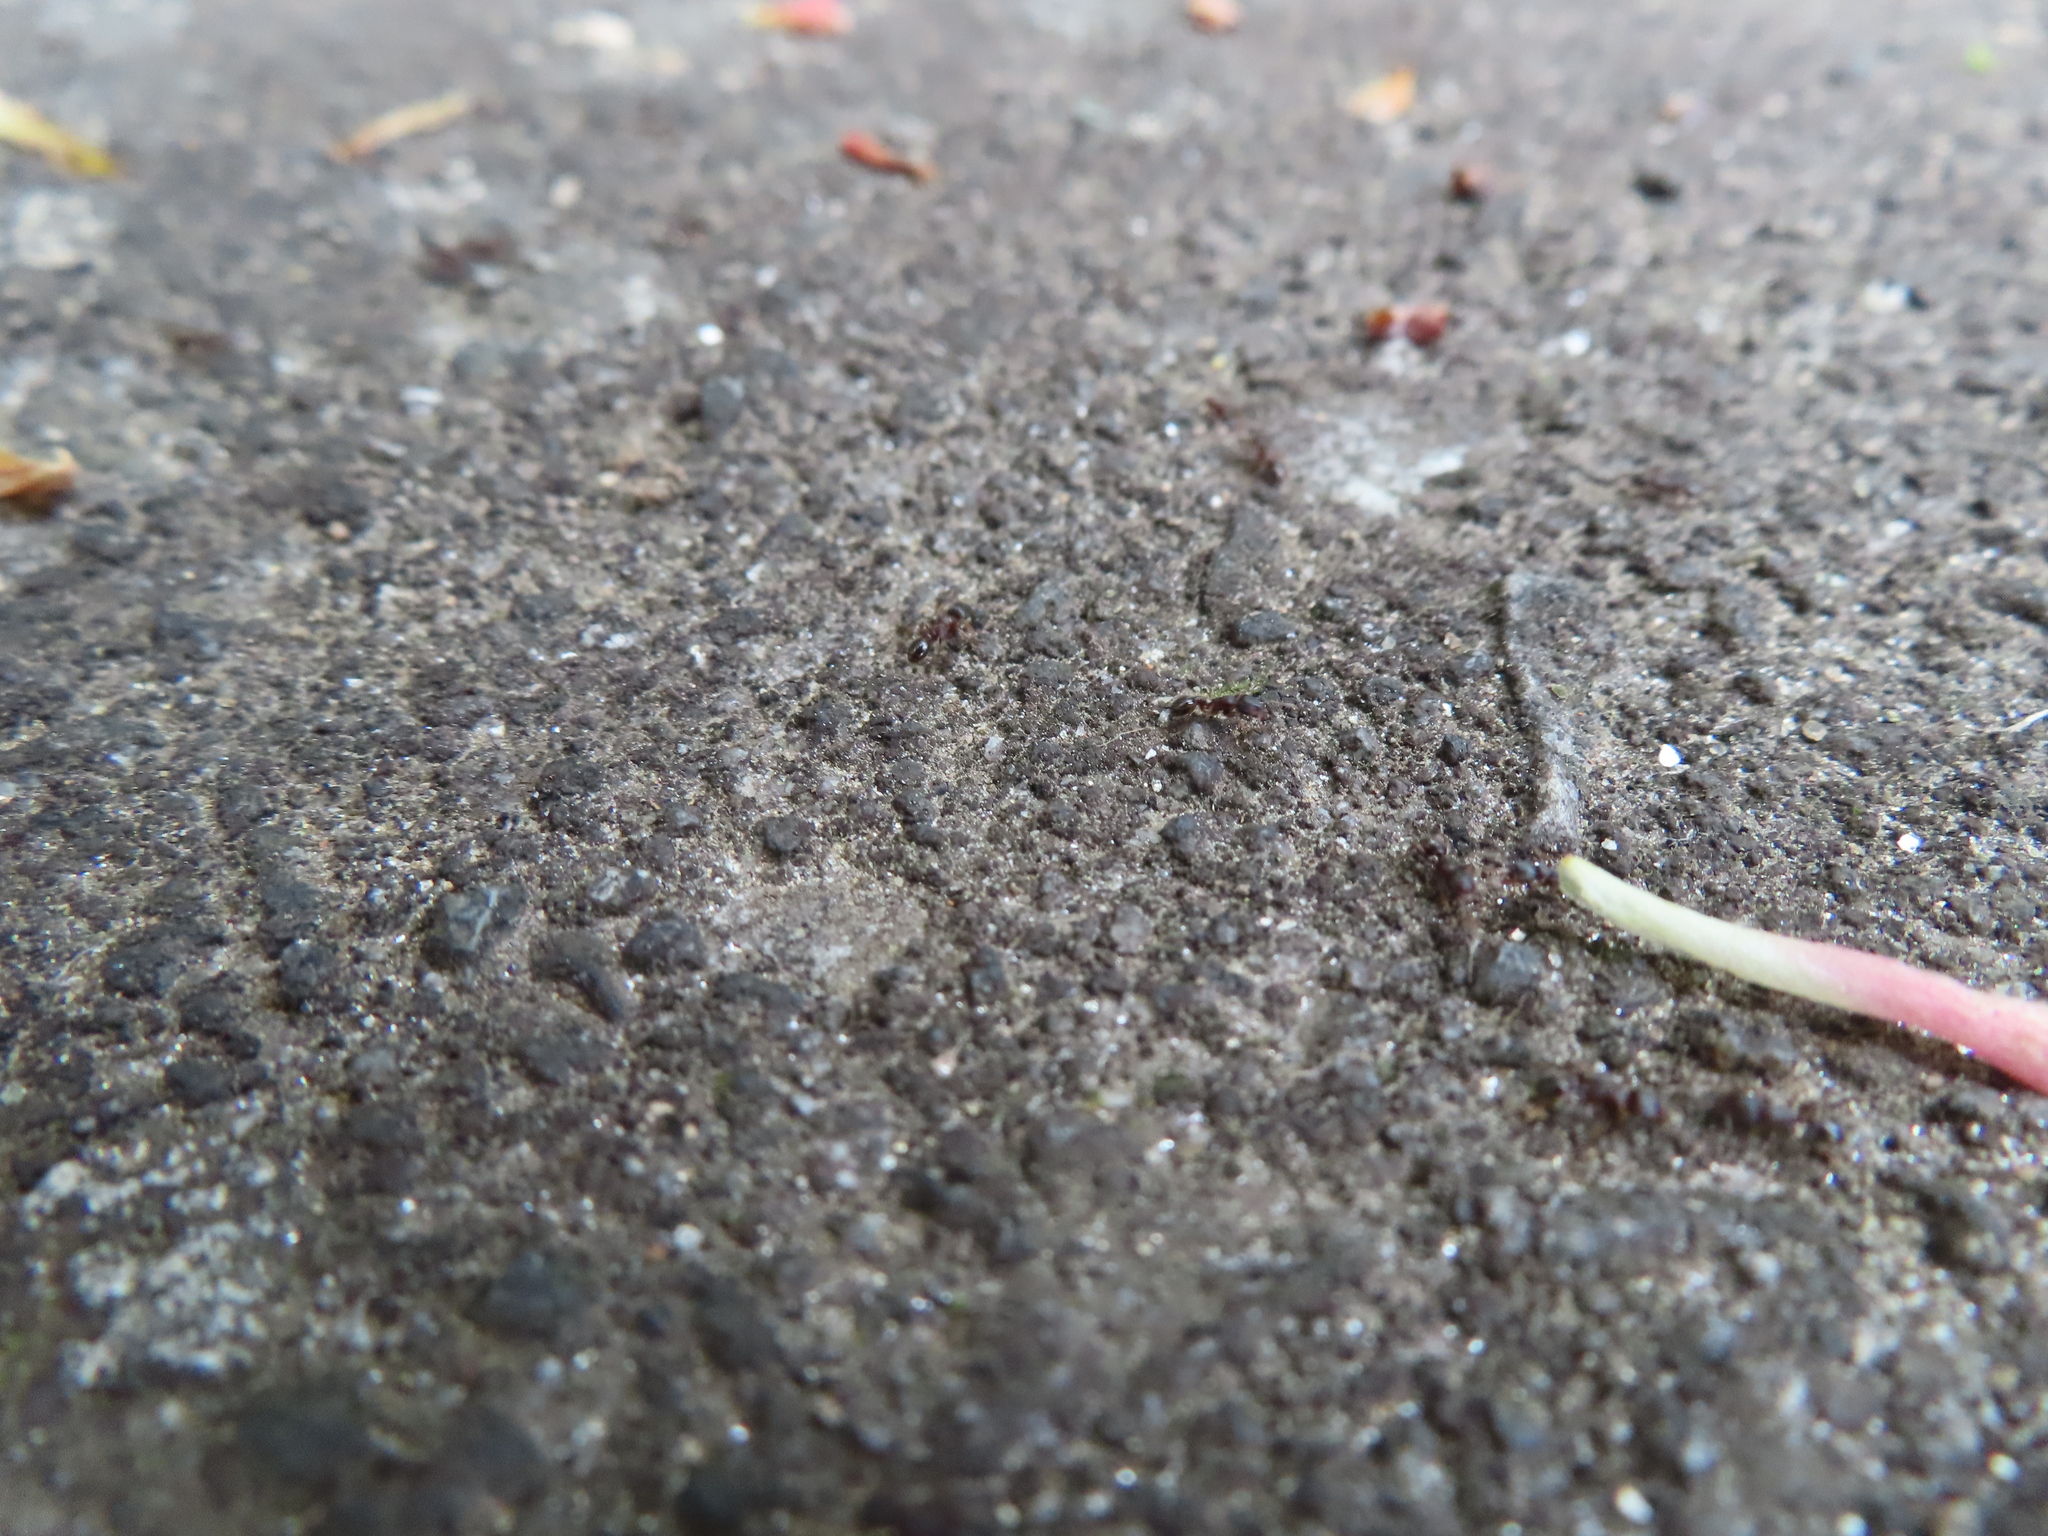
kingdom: Animalia
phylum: Arthropoda
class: Insecta
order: Hymenoptera
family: Formicidae
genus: Tetramorium
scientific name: Tetramorium immigrans
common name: Pavement ant
